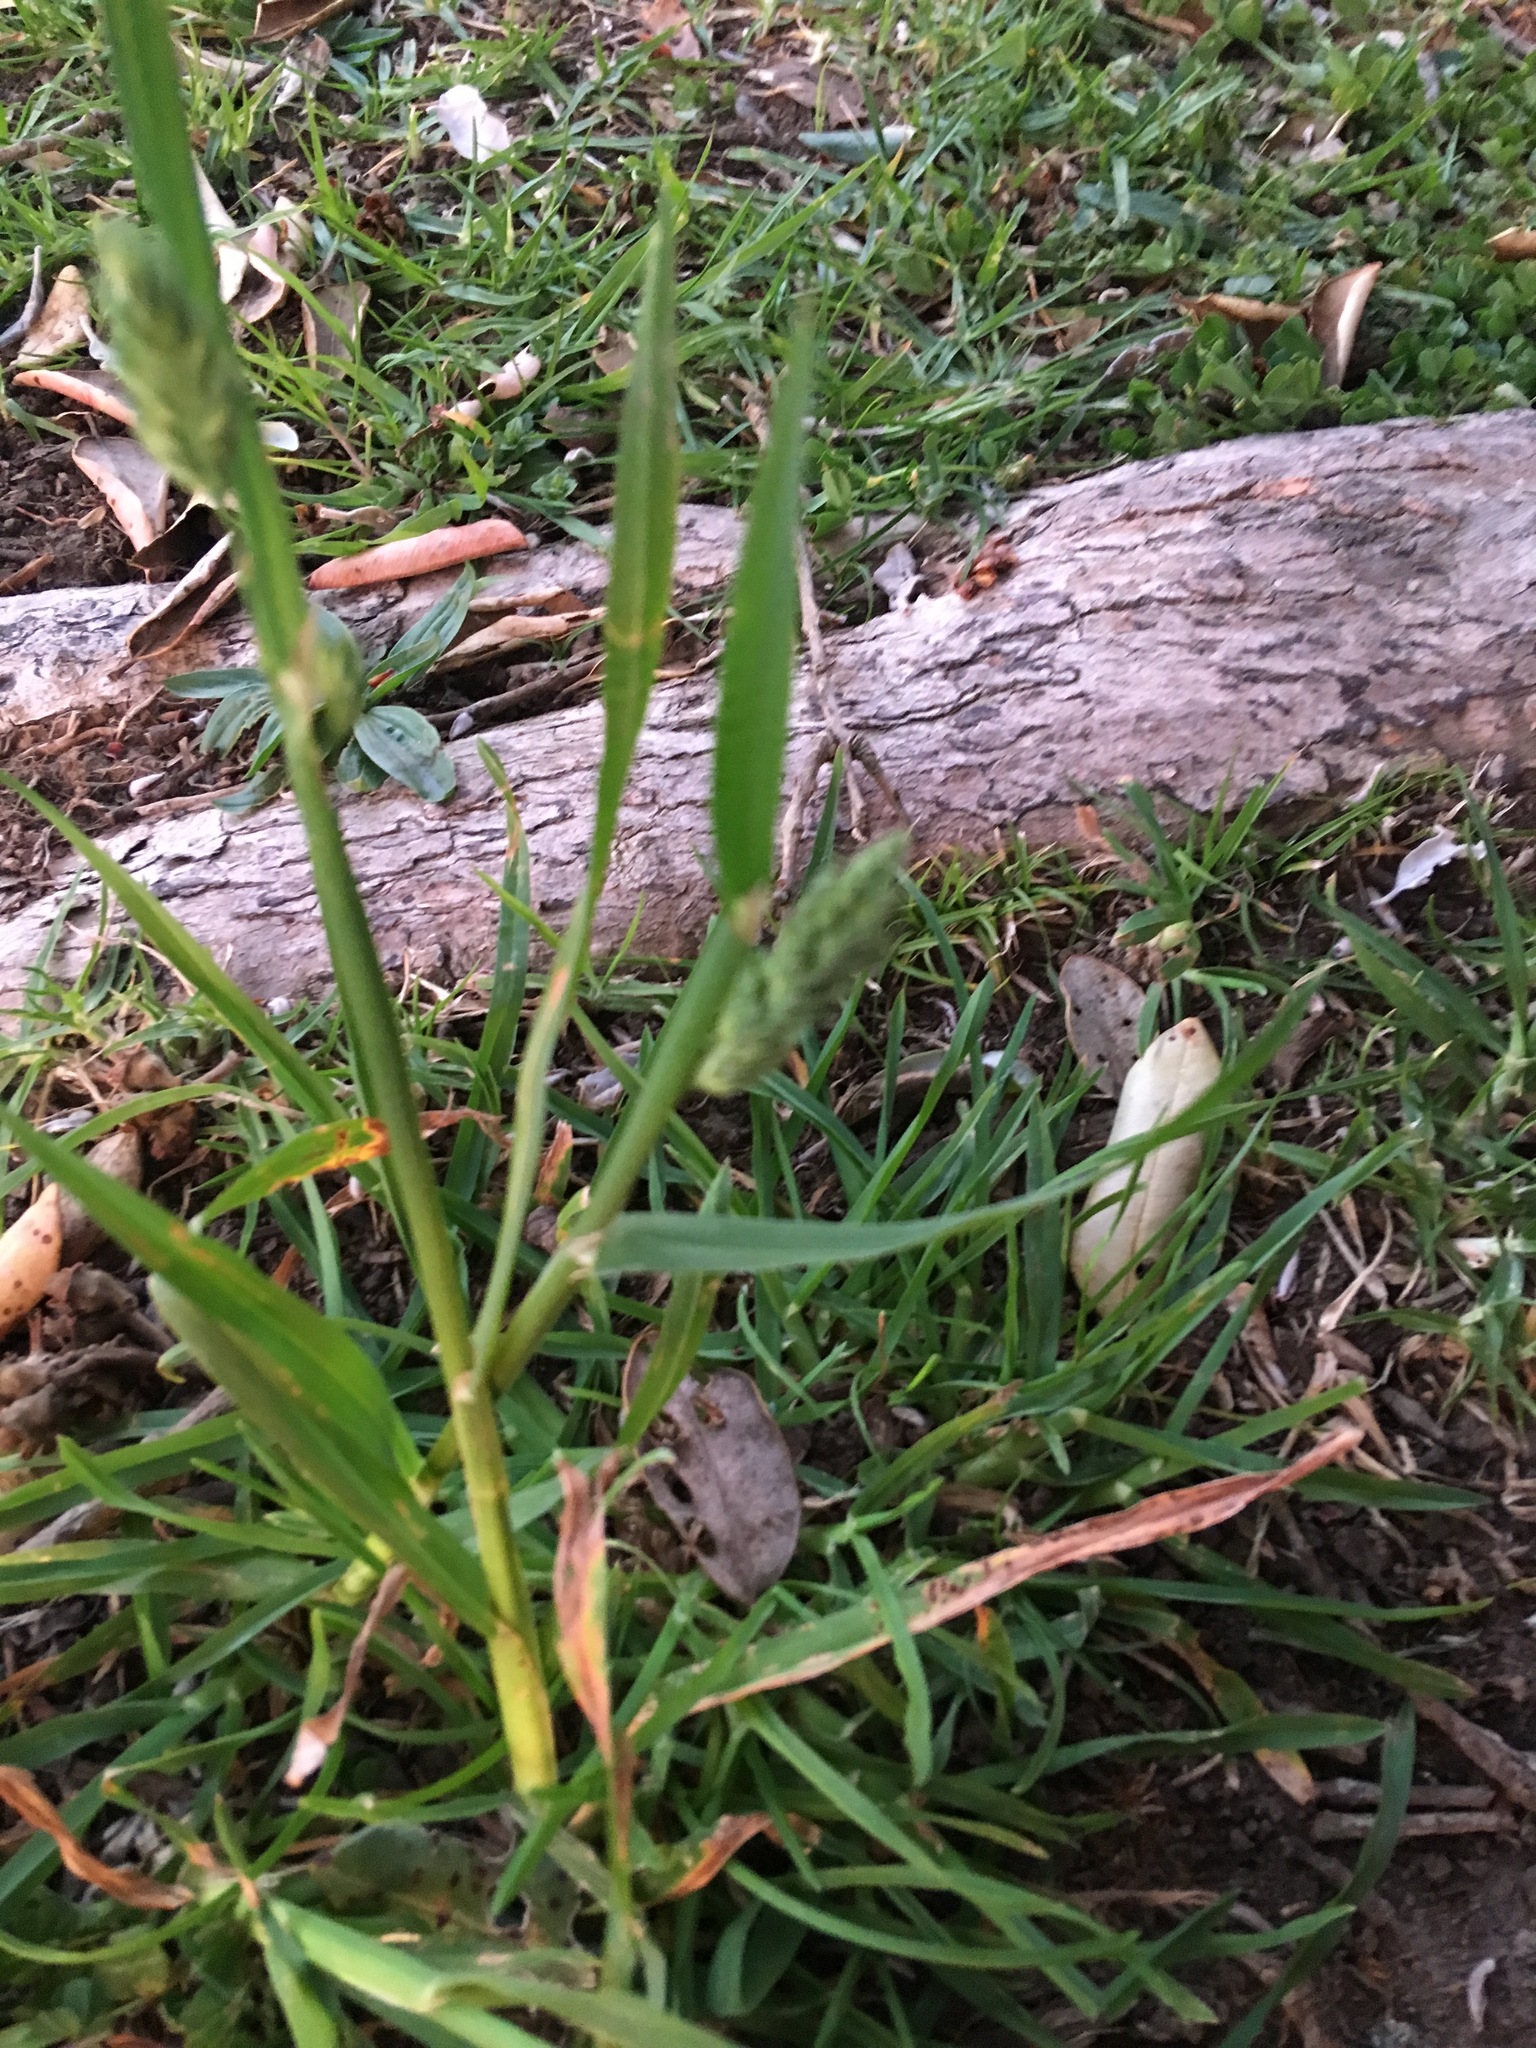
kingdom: Plantae
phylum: Tracheophyta
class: Liliopsida
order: Poales
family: Poaceae
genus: Dactylis
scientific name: Dactylis glomerata
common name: Orchardgrass
